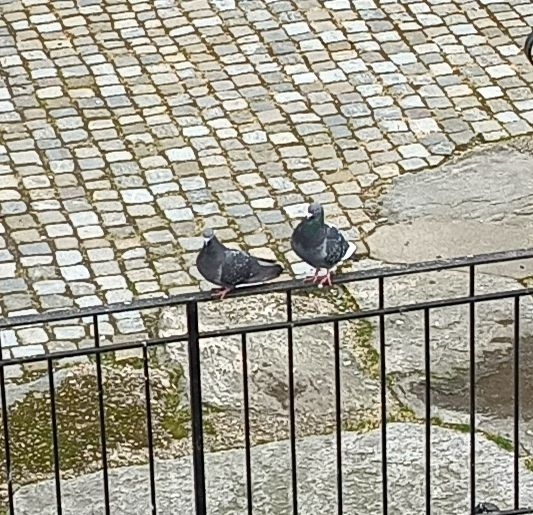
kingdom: Animalia
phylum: Chordata
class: Aves
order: Columbiformes
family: Columbidae
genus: Columba
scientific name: Columba livia
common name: Rock pigeon
